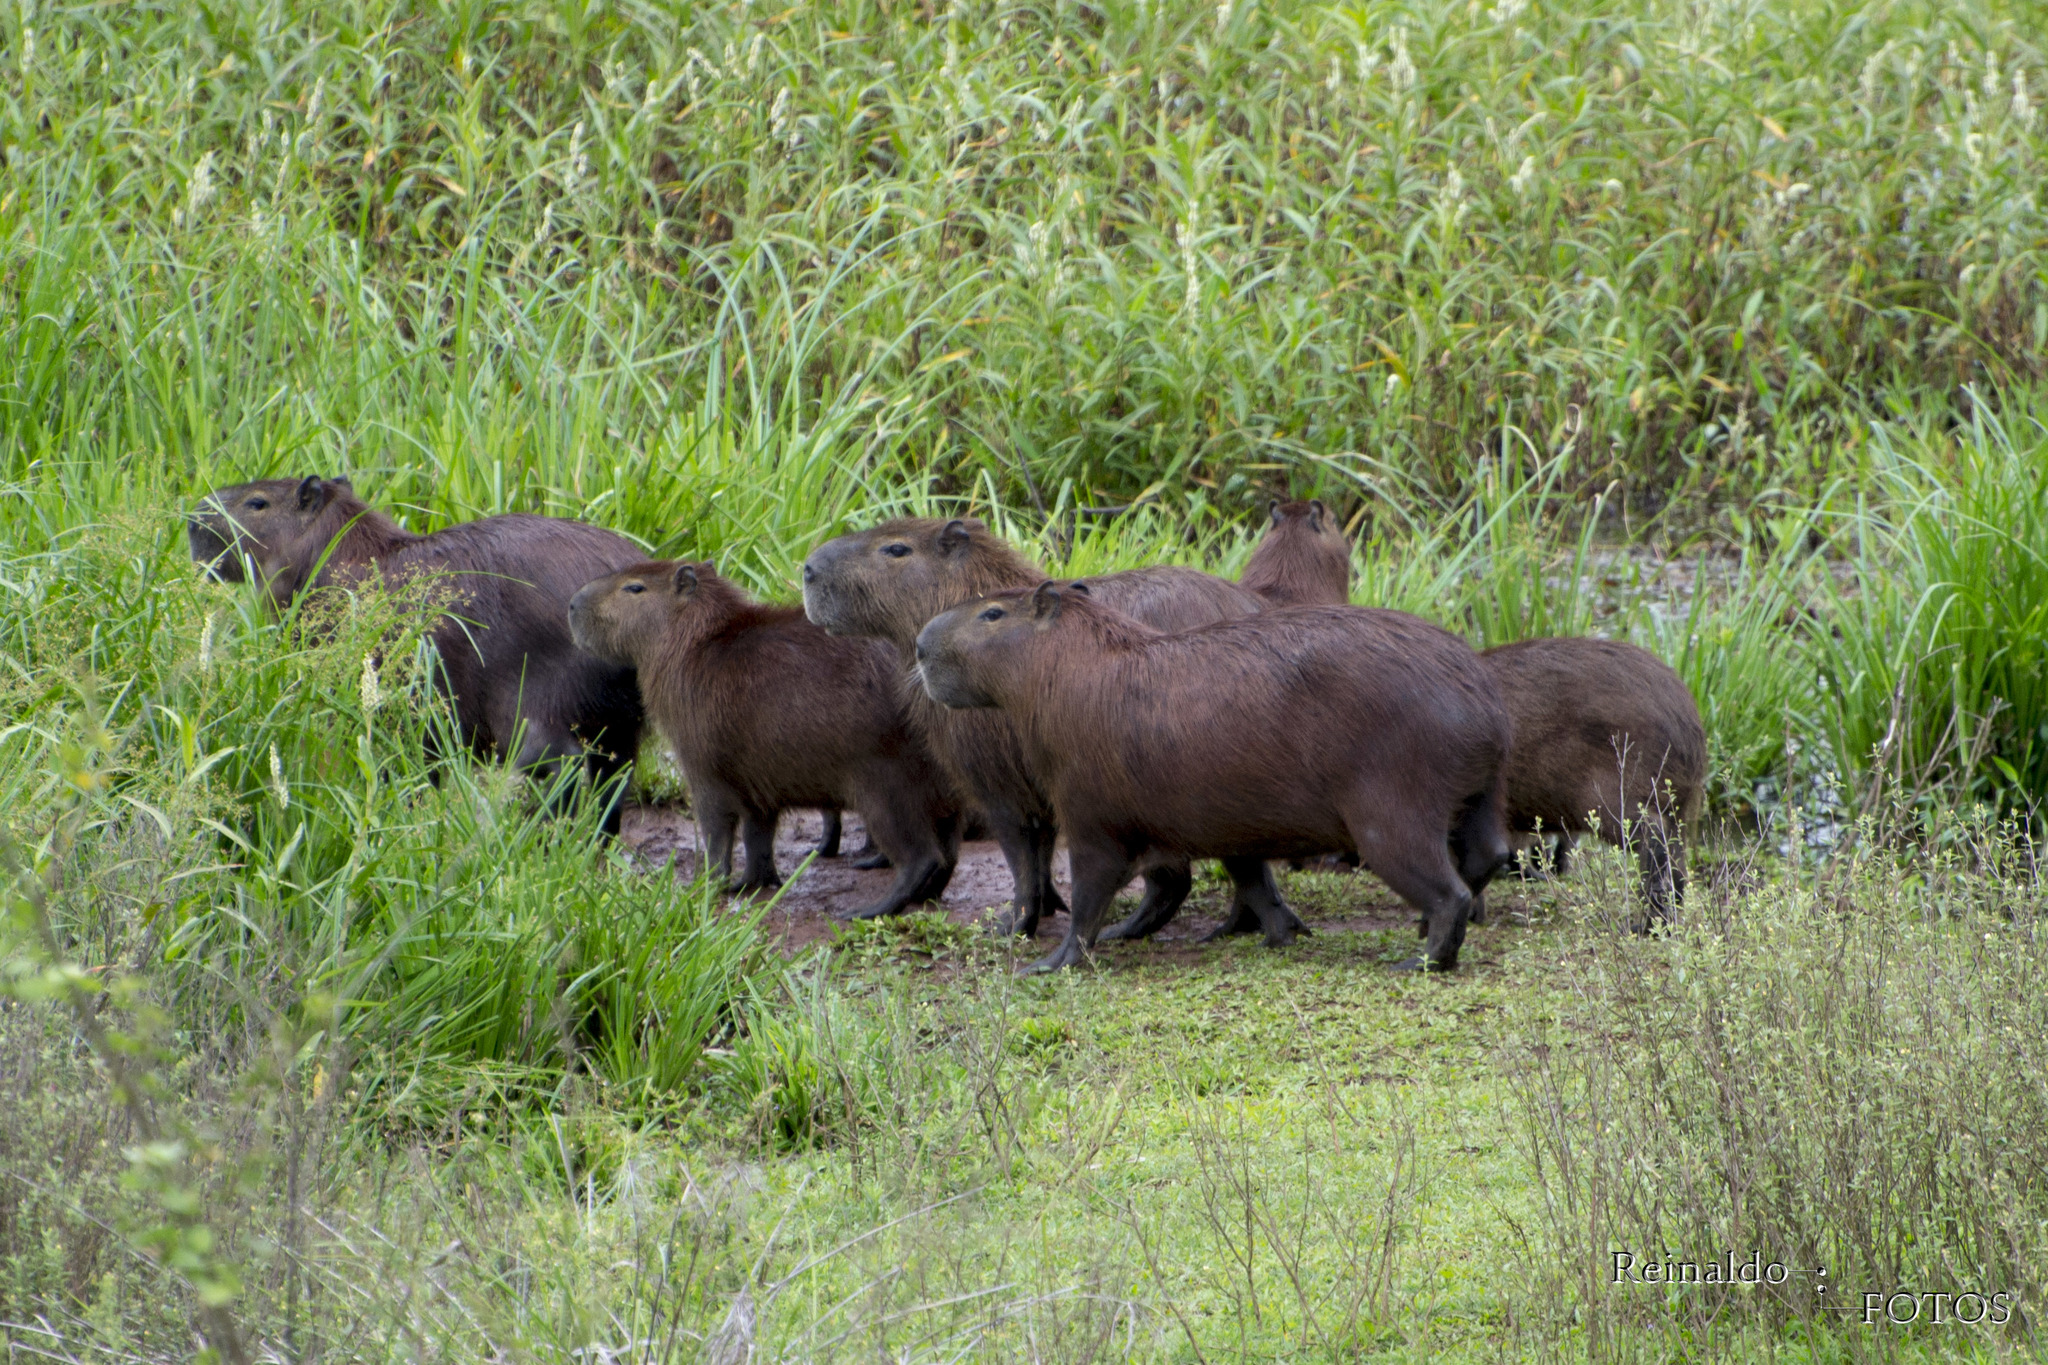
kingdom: Animalia
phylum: Chordata
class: Mammalia
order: Rodentia
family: Caviidae
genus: Hydrochoerus
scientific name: Hydrochoerus hydrochaeris
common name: Capybara
